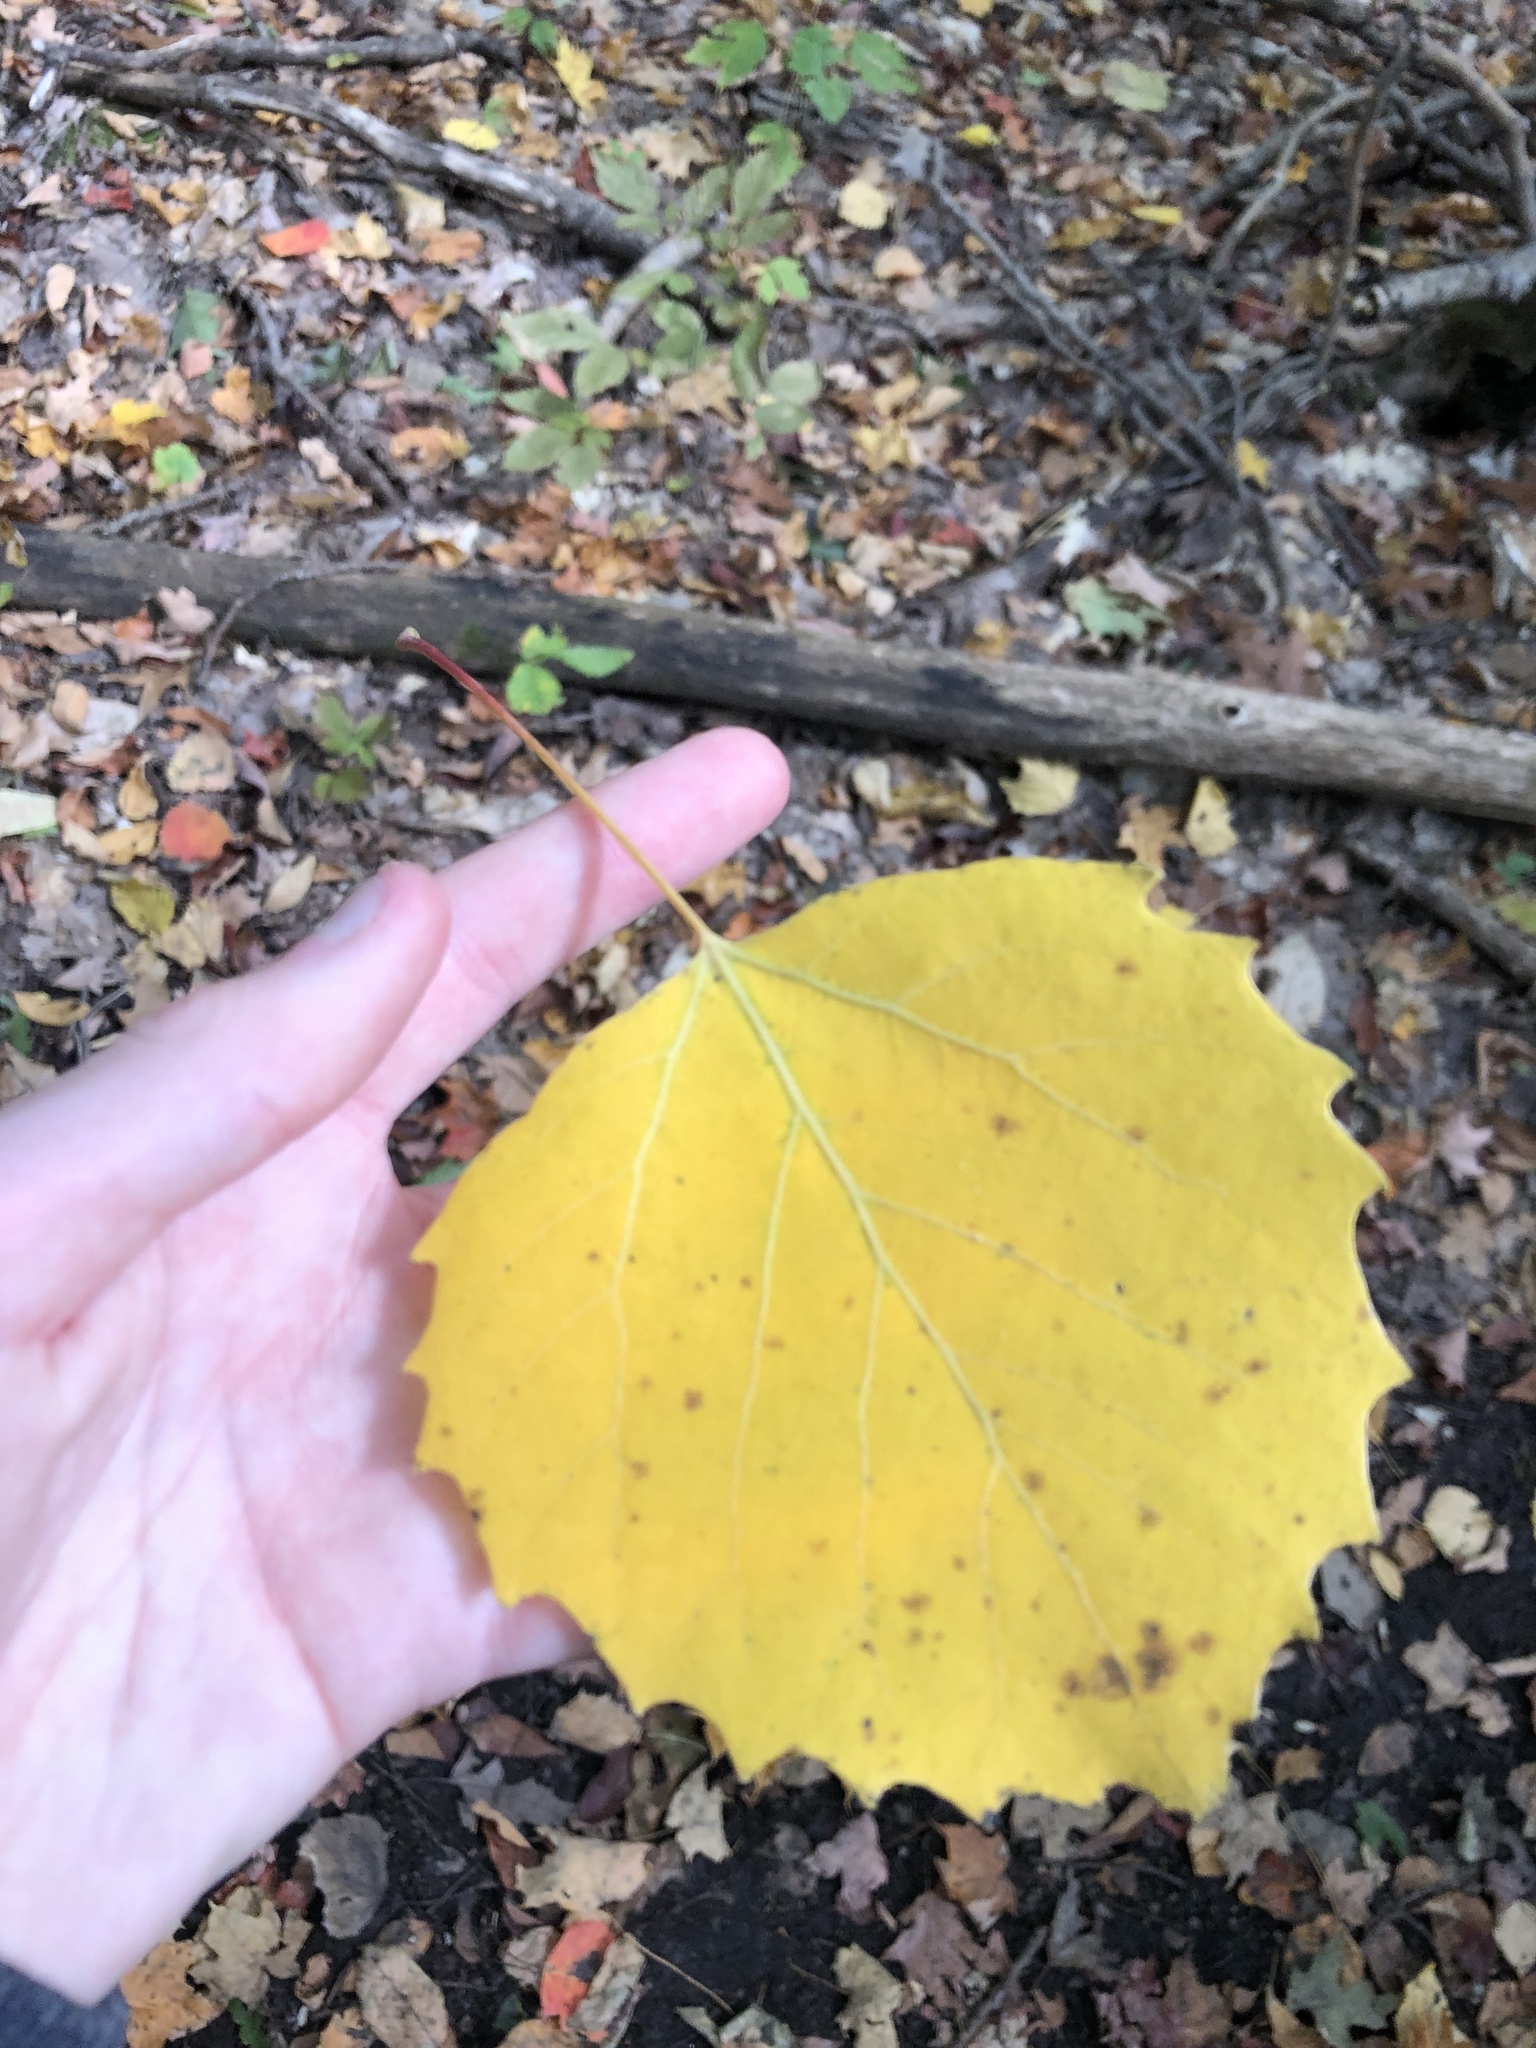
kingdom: Plantae
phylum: Tracheophyta
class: Magnoliopsida
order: Malpighiales
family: Salicaceae
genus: Populus
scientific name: Populus grandidentata
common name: Bigtooth aspen
